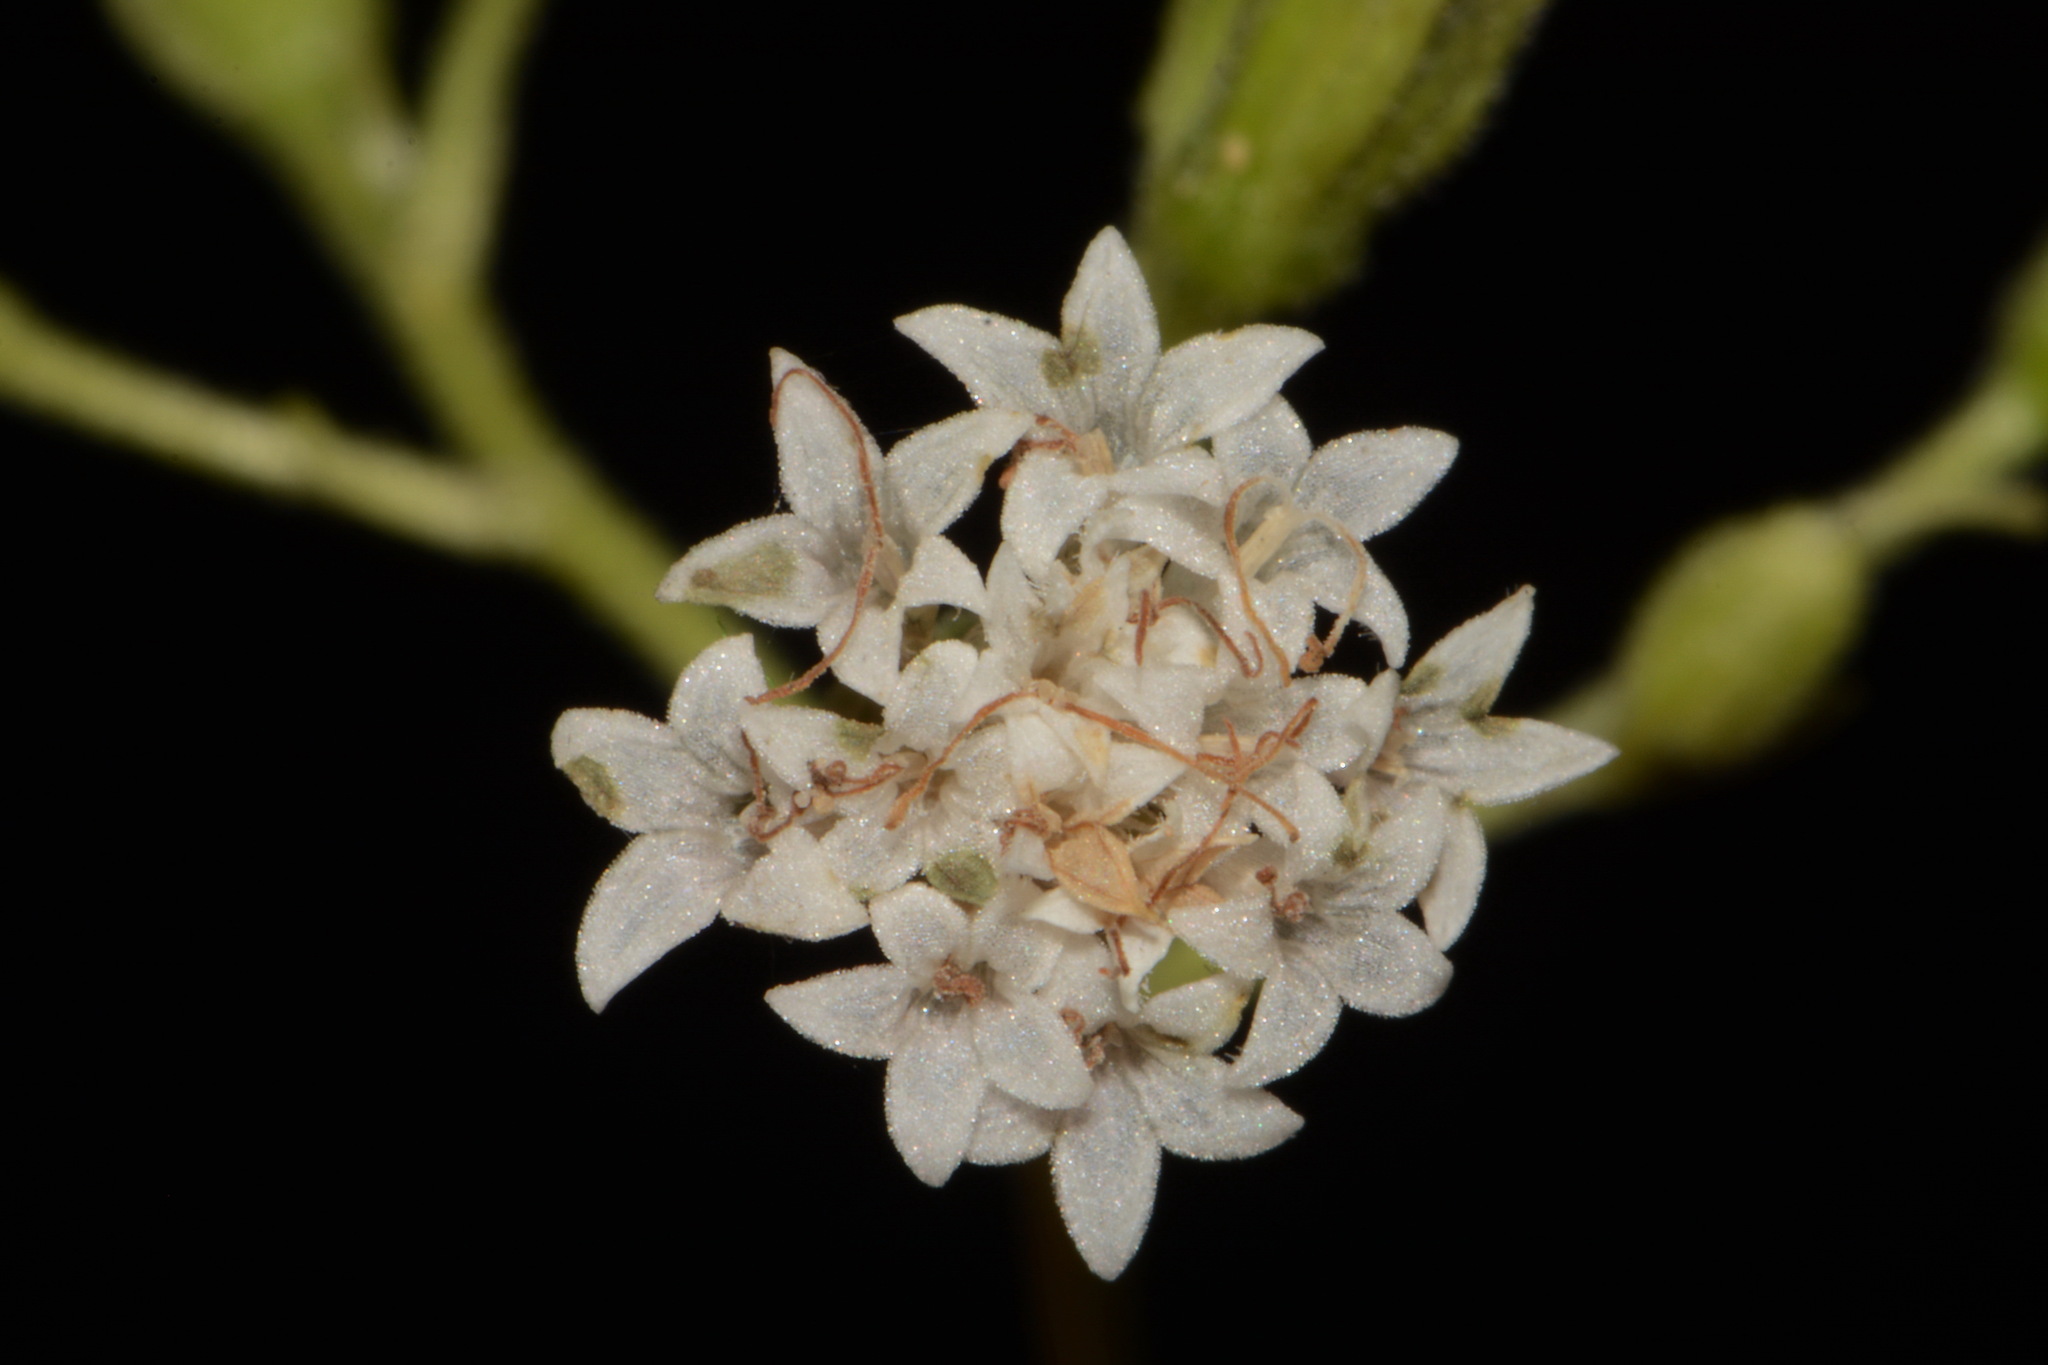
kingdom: Plantae
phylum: Tracheophyta
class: Magnoliopsida
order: Asterales
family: Asteraceae
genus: Ageratina
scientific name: Ageratina aromatica
